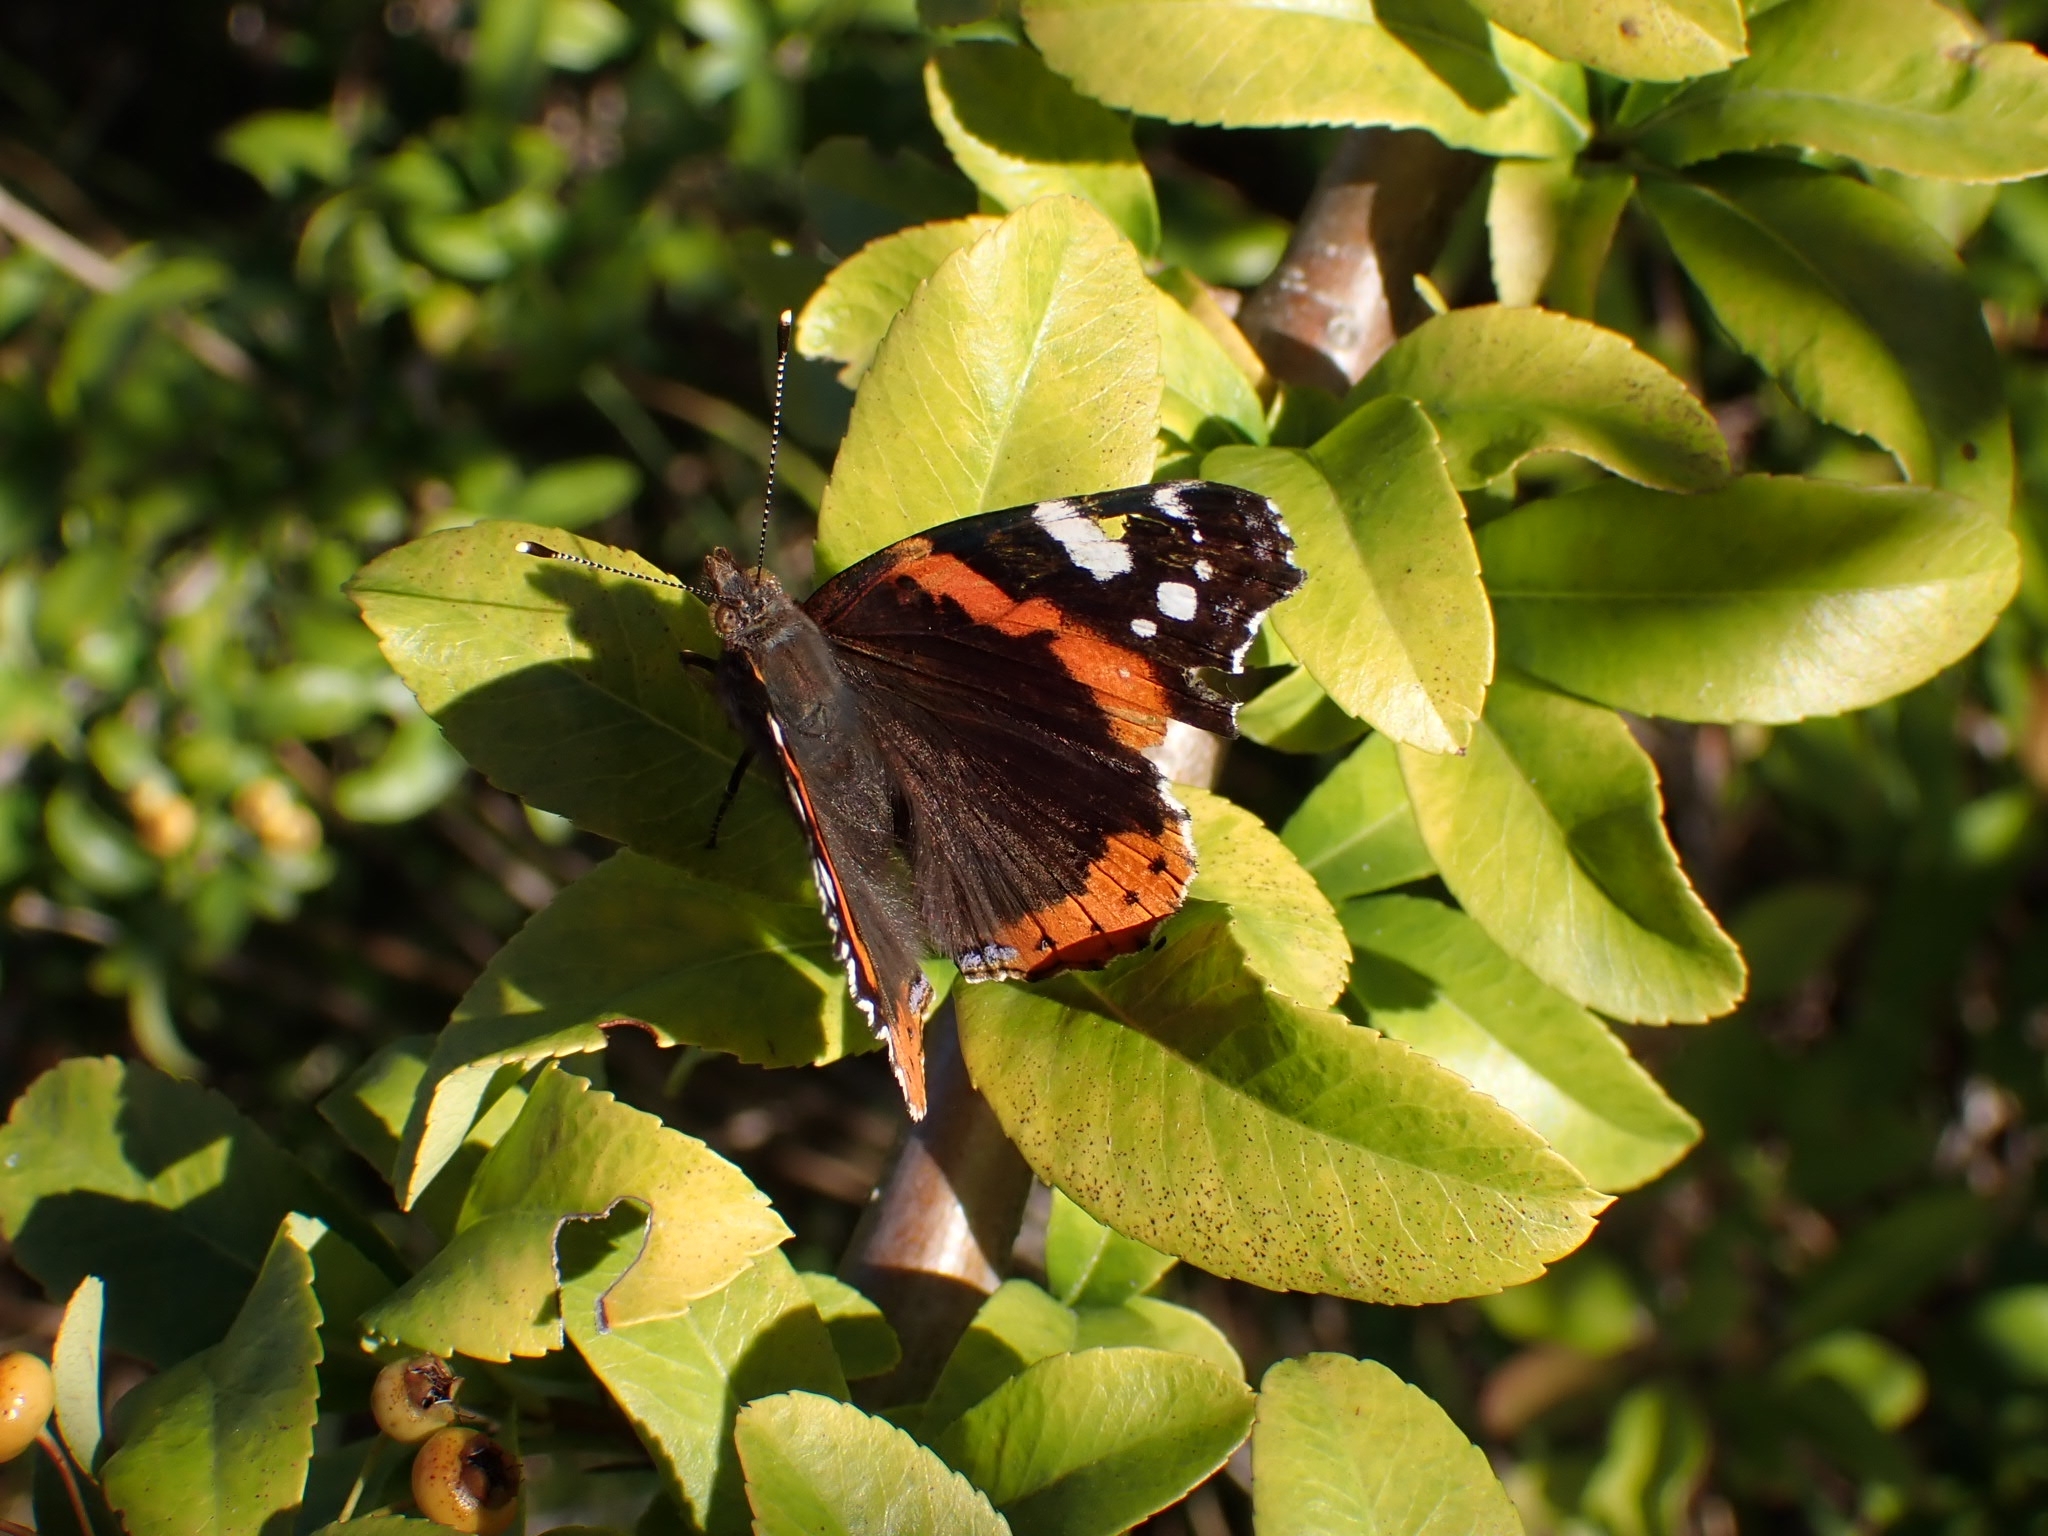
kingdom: Animalia
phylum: Arthropoda
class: Insecta
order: Lepidoptera
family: Nymphalidae
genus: Vanessa
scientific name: Vanessa atalanta
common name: Red admiral
